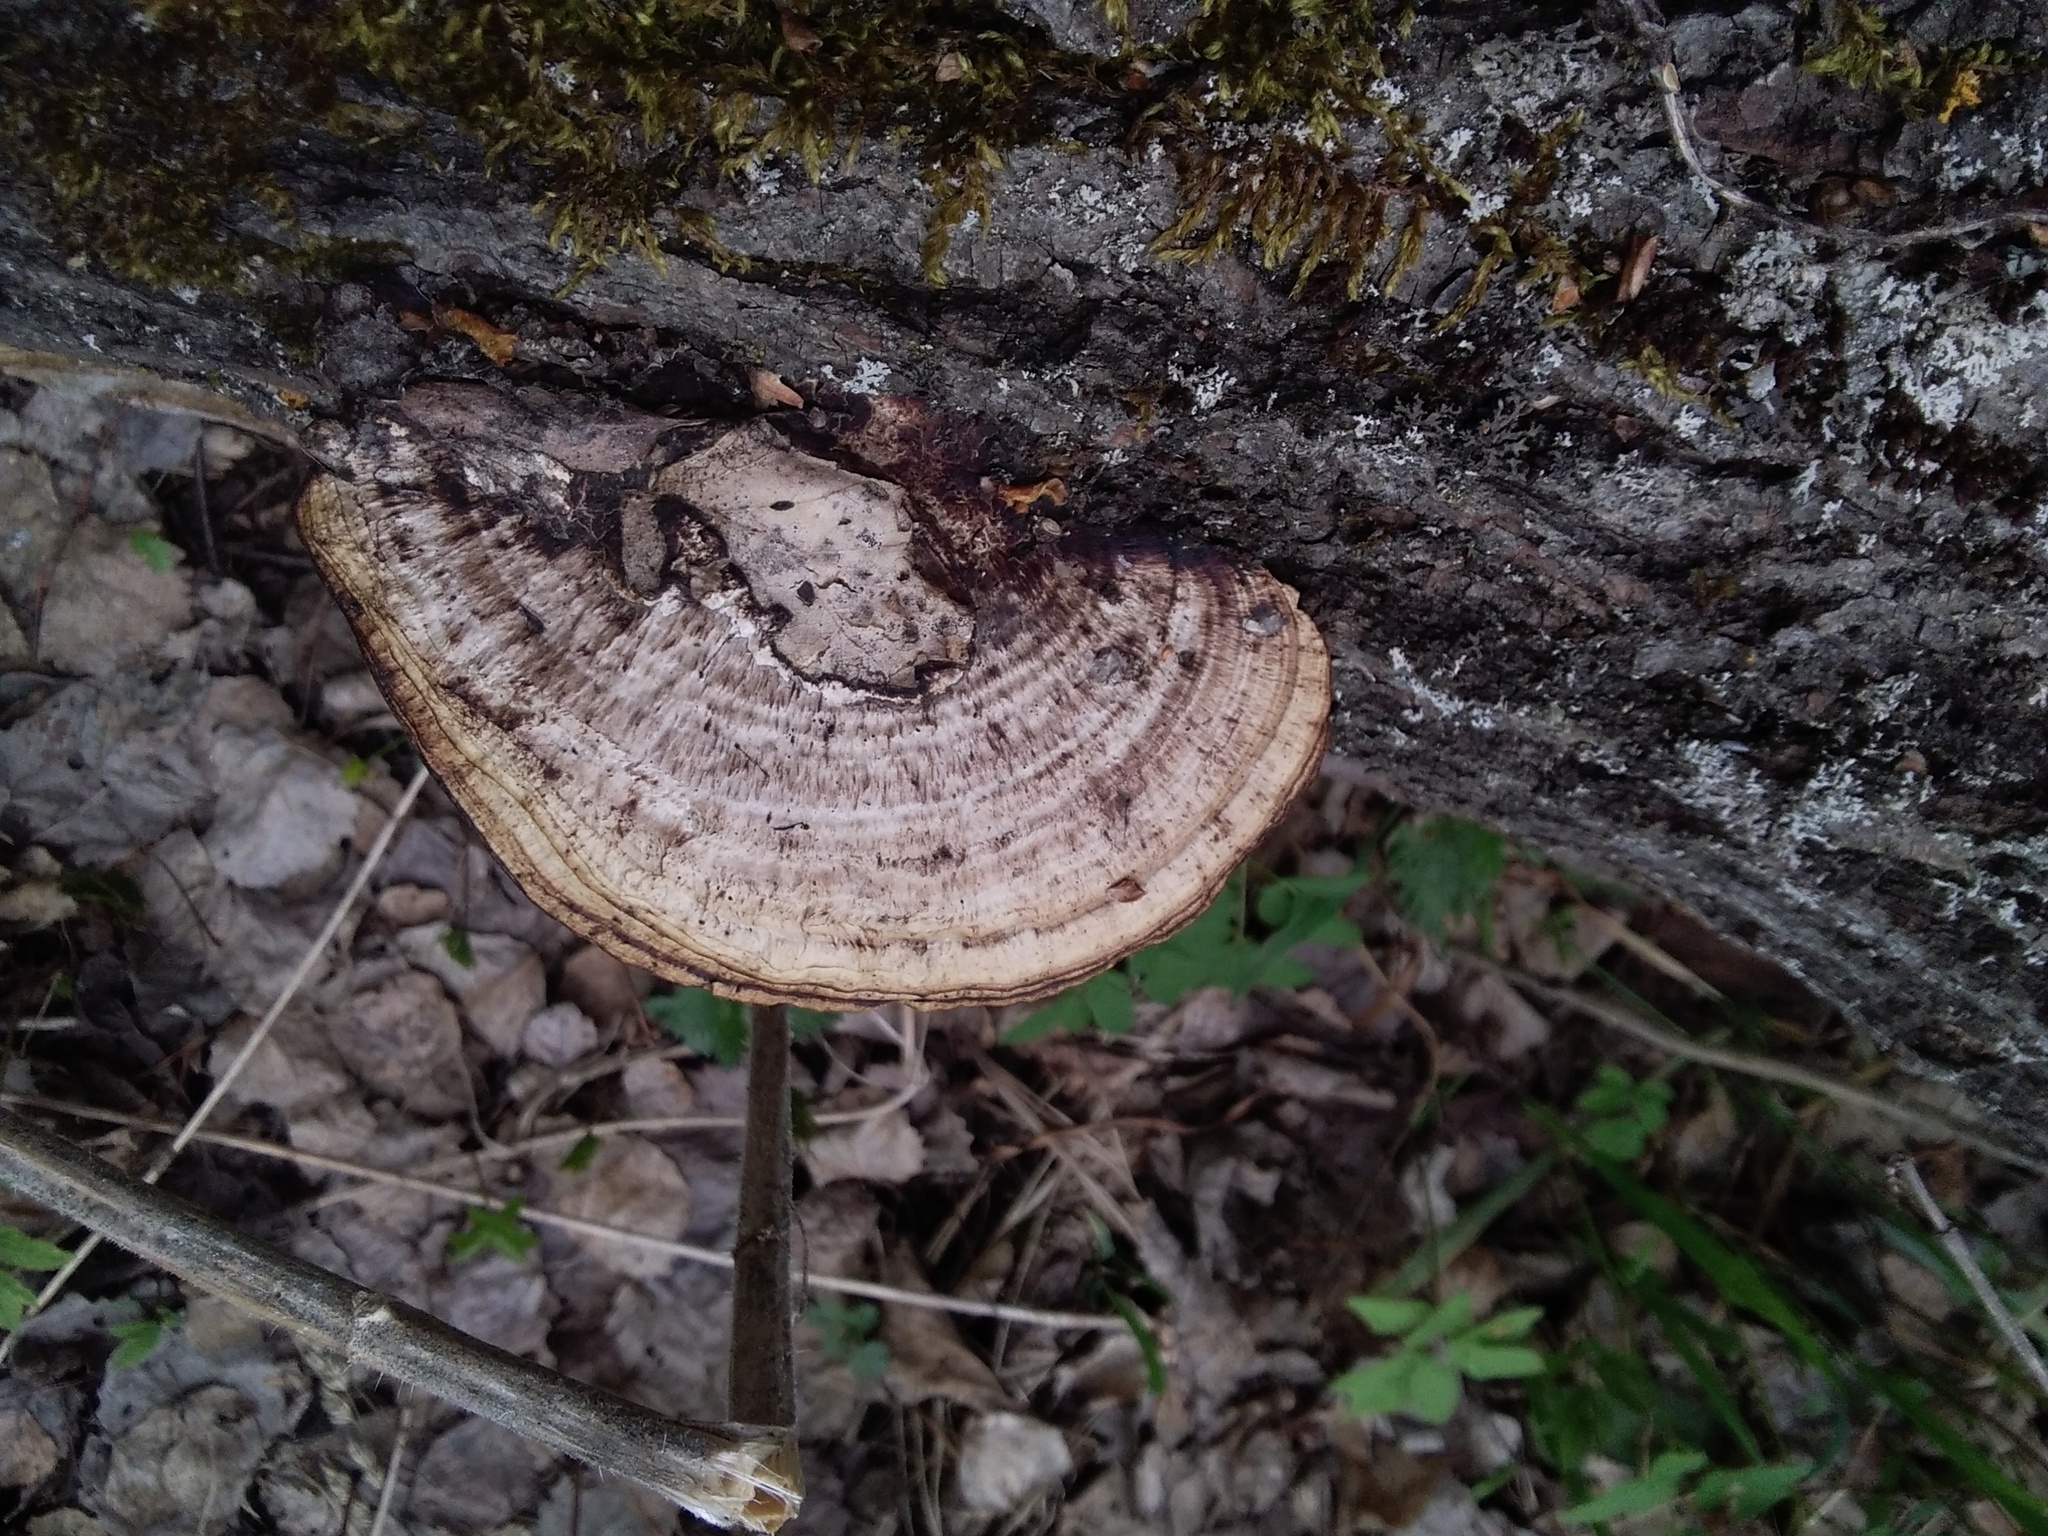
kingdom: Fungi
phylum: Basidiomycota
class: Agaricomycetes
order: Polyporales
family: Polyporaceae
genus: Daedaleopsis
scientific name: Daedaleopsis confragosa
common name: Blushing bracket
